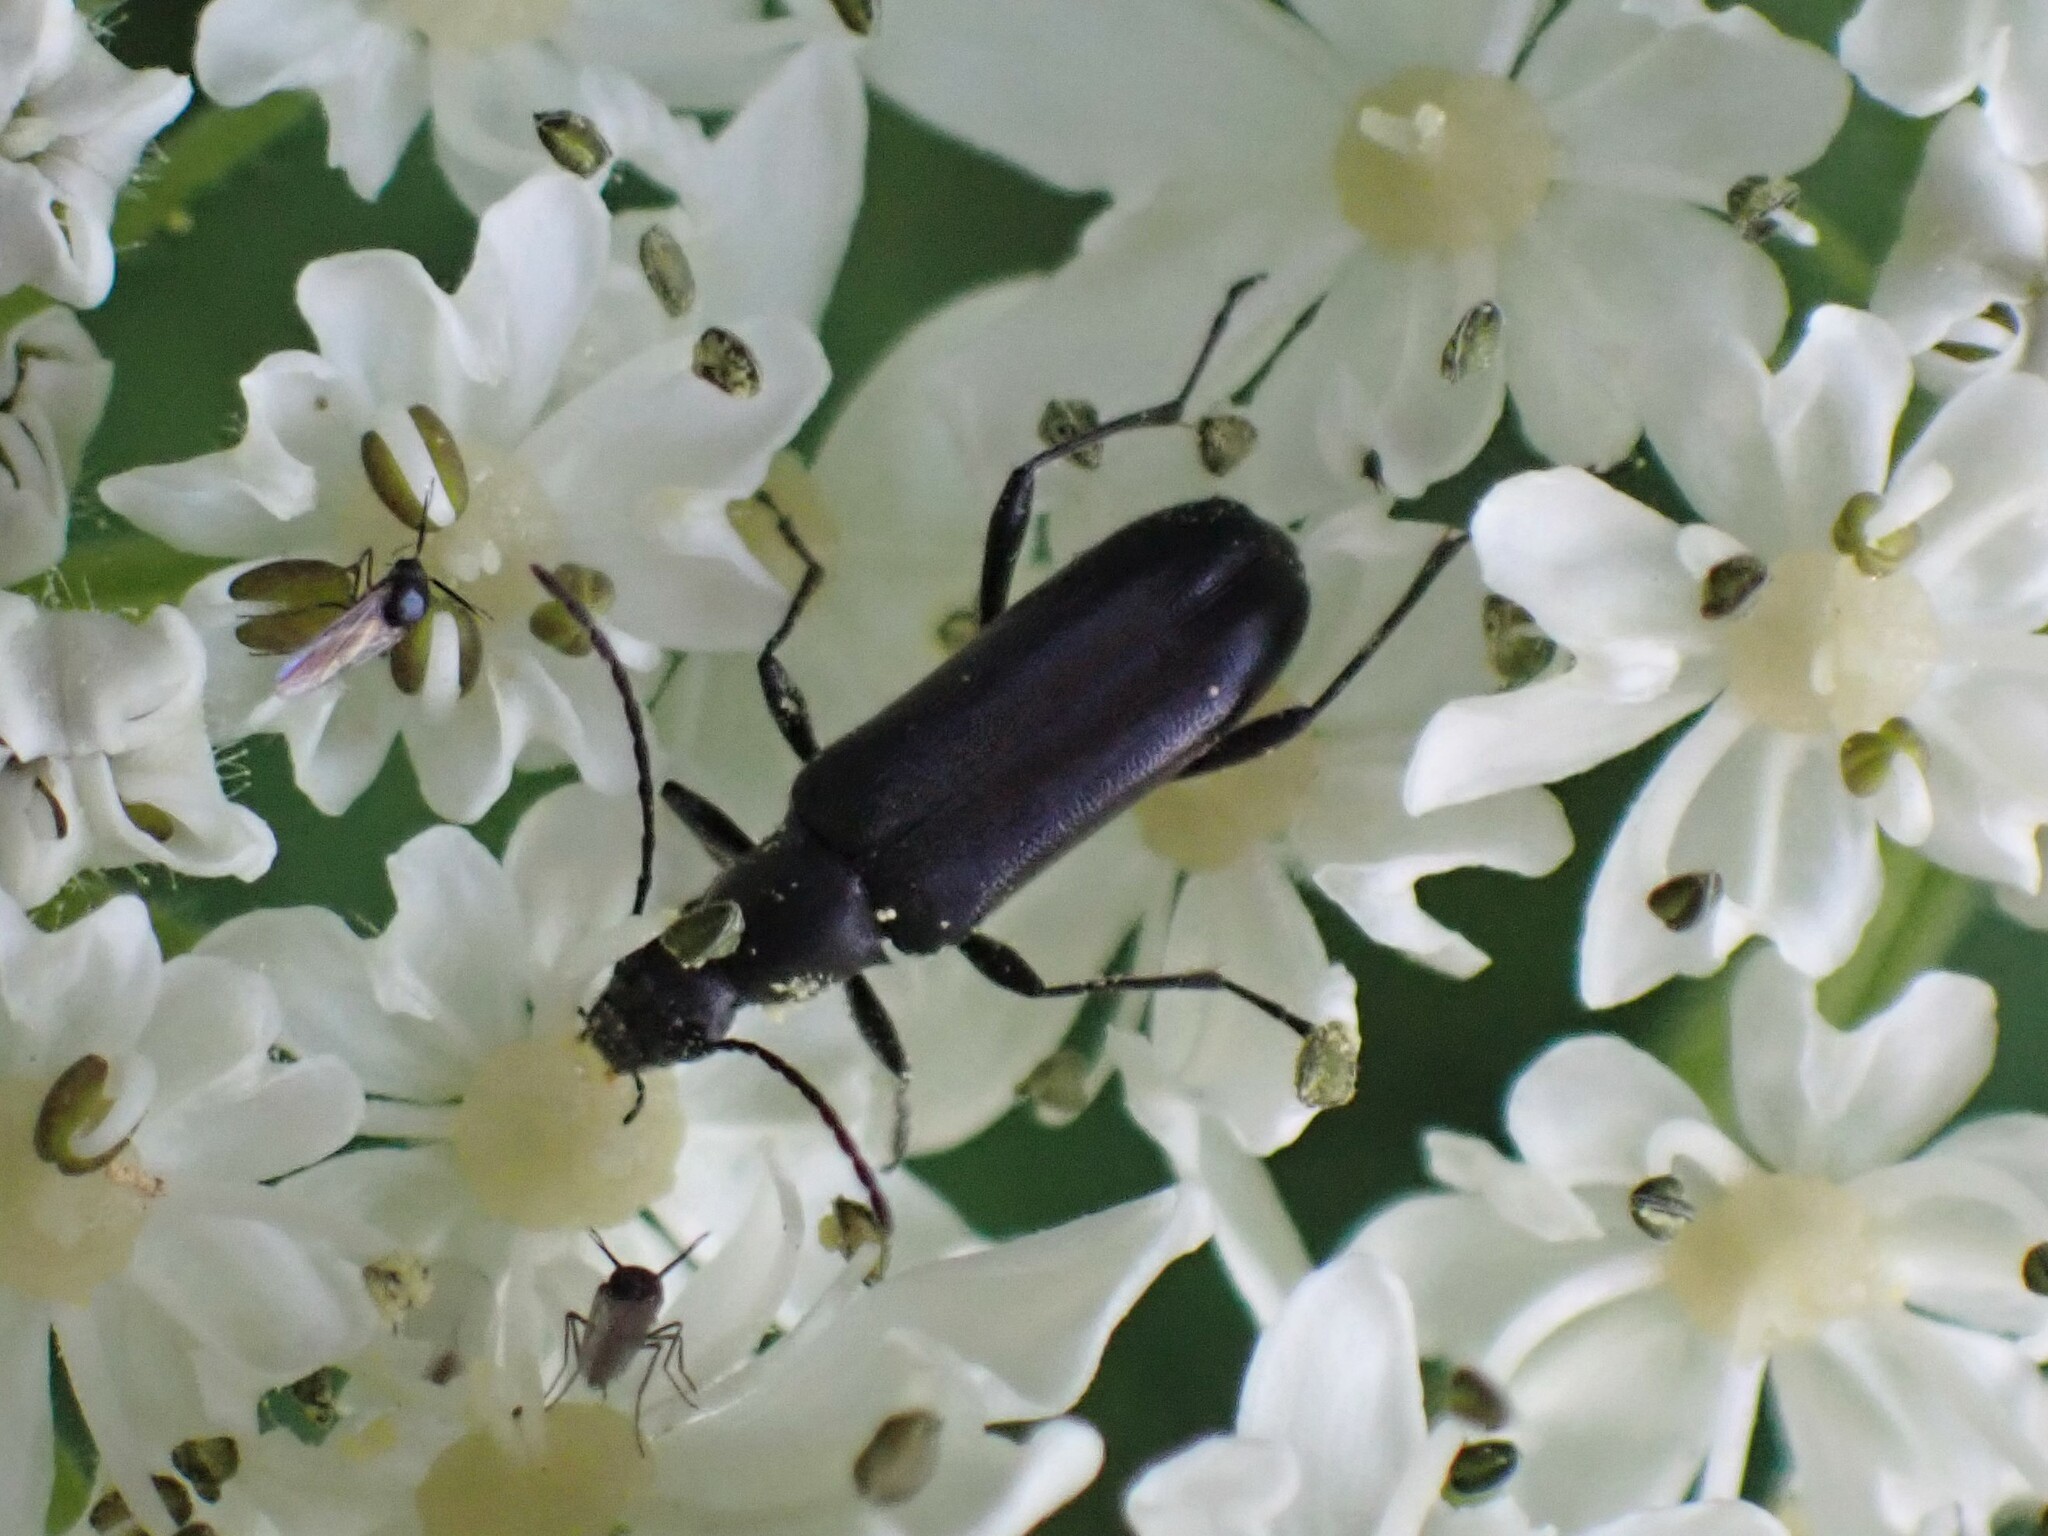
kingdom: Animalia
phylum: Arthropoda
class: Insecta
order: Coleoptera
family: Cerambycidae
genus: Grammoptera
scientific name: Grammoptera subargentata
